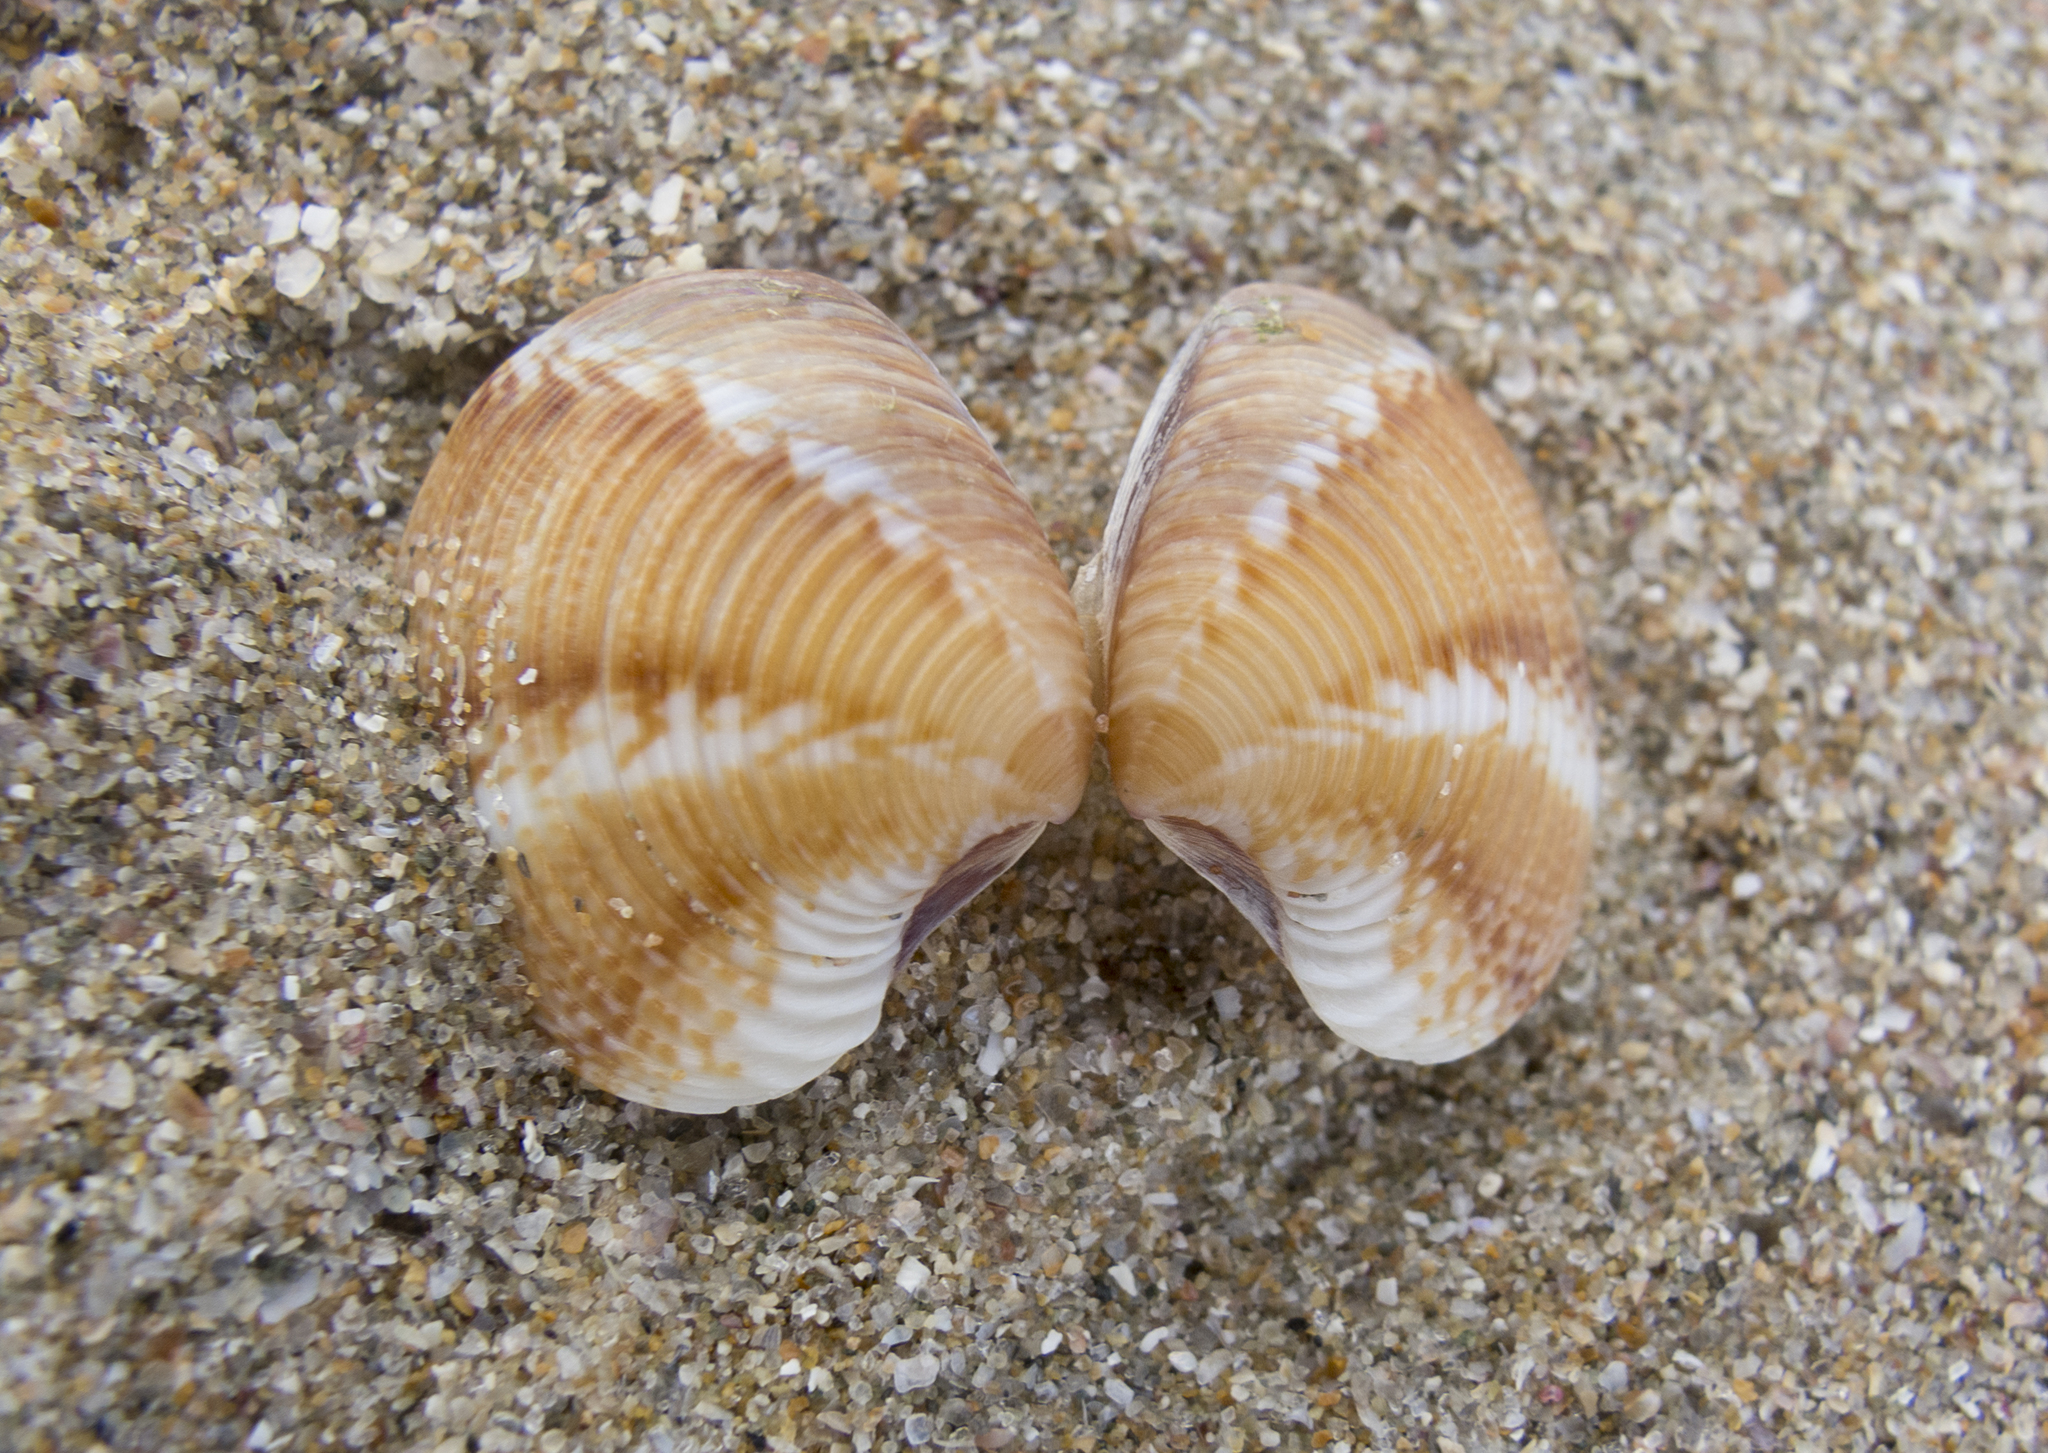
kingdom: Animalia
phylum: Mollusca
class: Bivalvia
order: Venerida
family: Veneridae
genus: Chamelea
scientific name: Chamelea gallina
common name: Chicken venus
